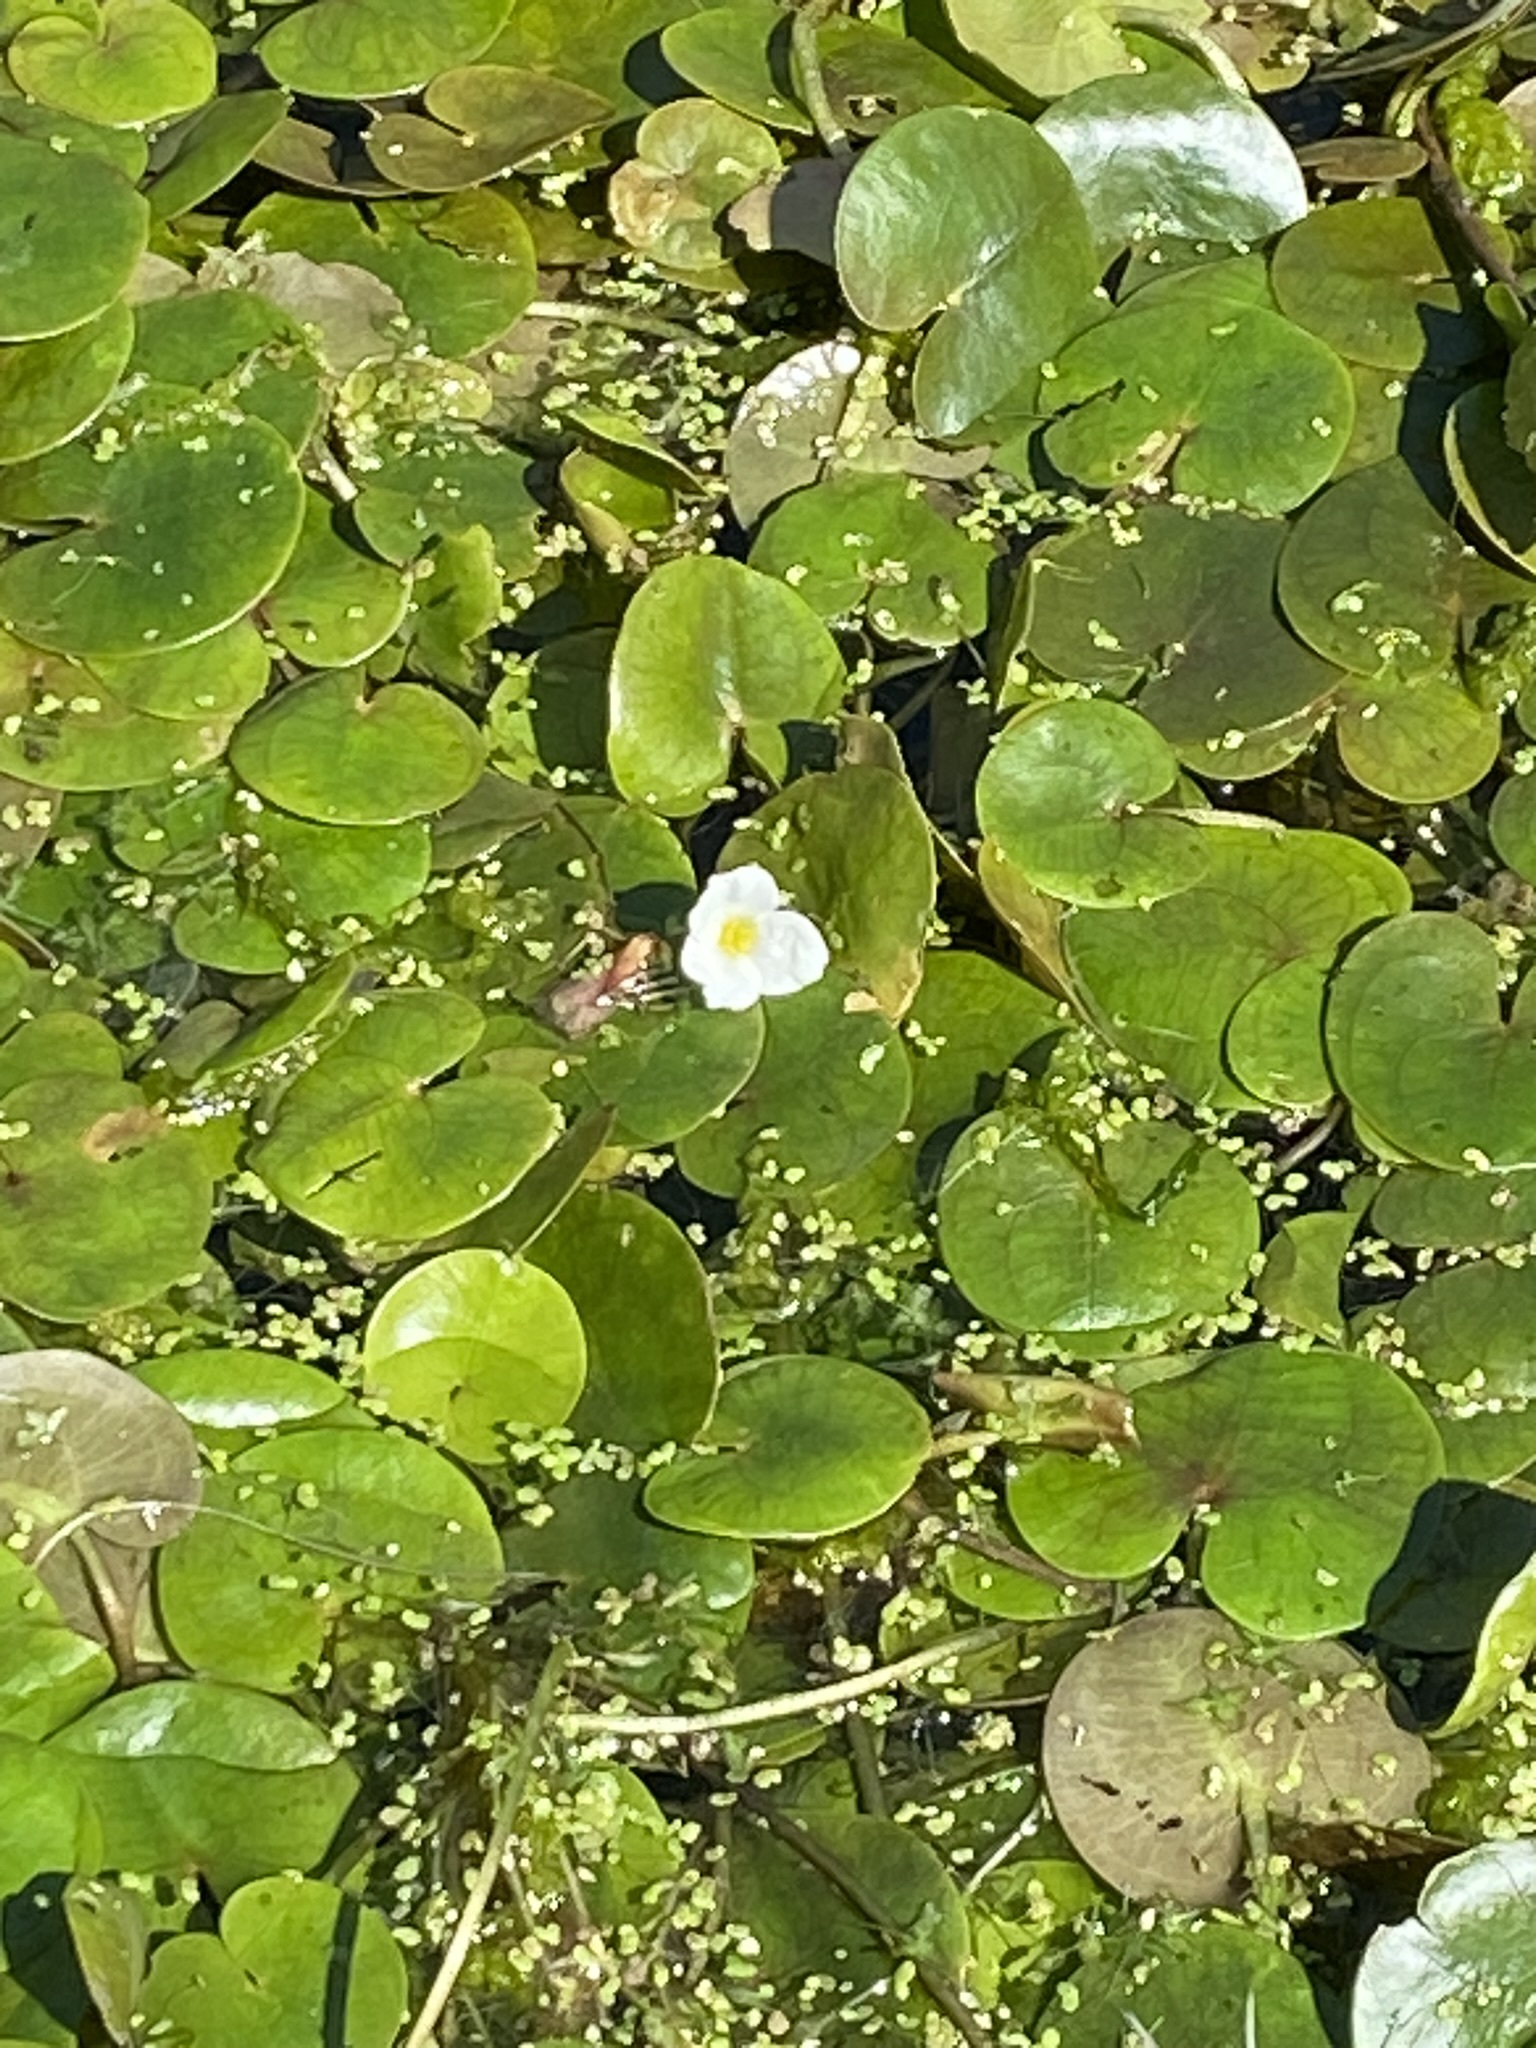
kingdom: Plantae
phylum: Tracheophyta
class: Liliopsida
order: Alismatales
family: Hydrocharitaceae
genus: Hydrocharis
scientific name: Hydrocharis morsus-ranae
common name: Frogbit
